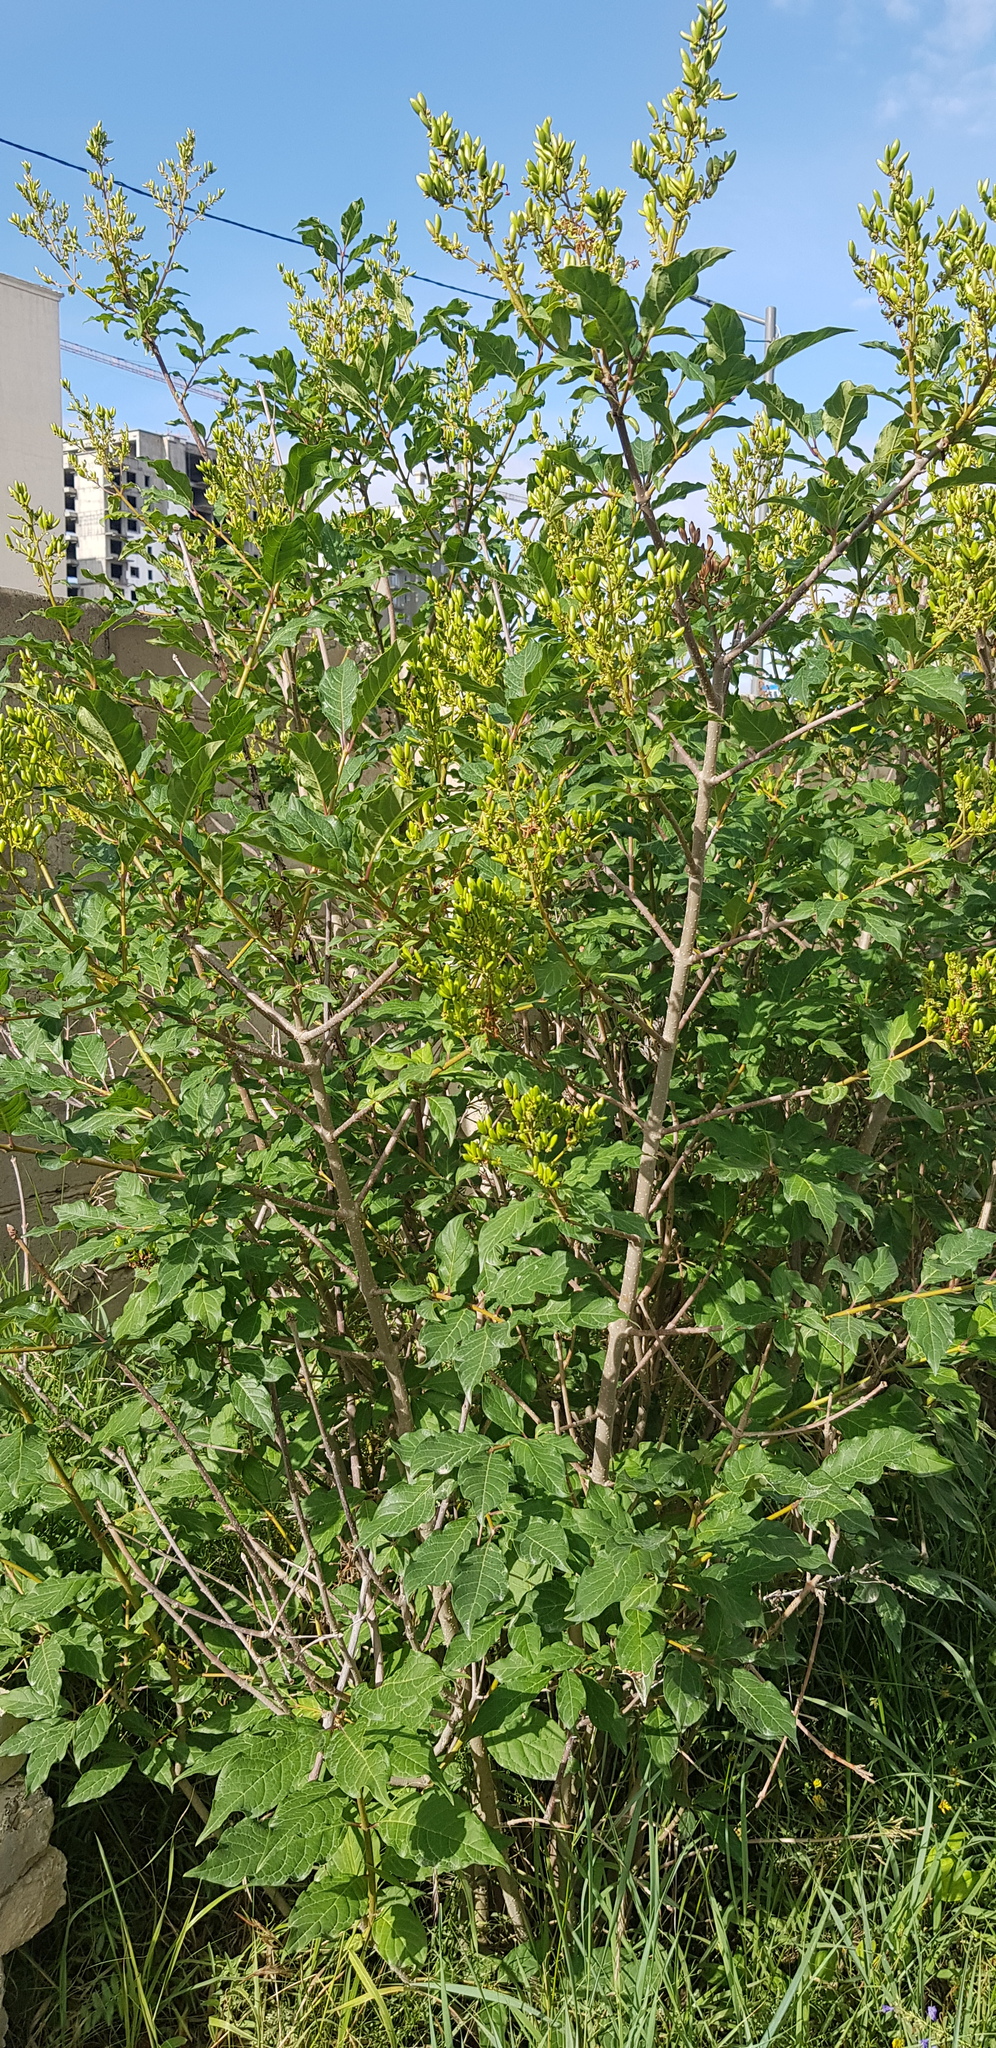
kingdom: Plantae
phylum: Tracheophyta
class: Magnoliopsida
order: Lamiales
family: Oleaceae
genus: Syringa
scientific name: Syringa josikaea
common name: Hungarian lilac
